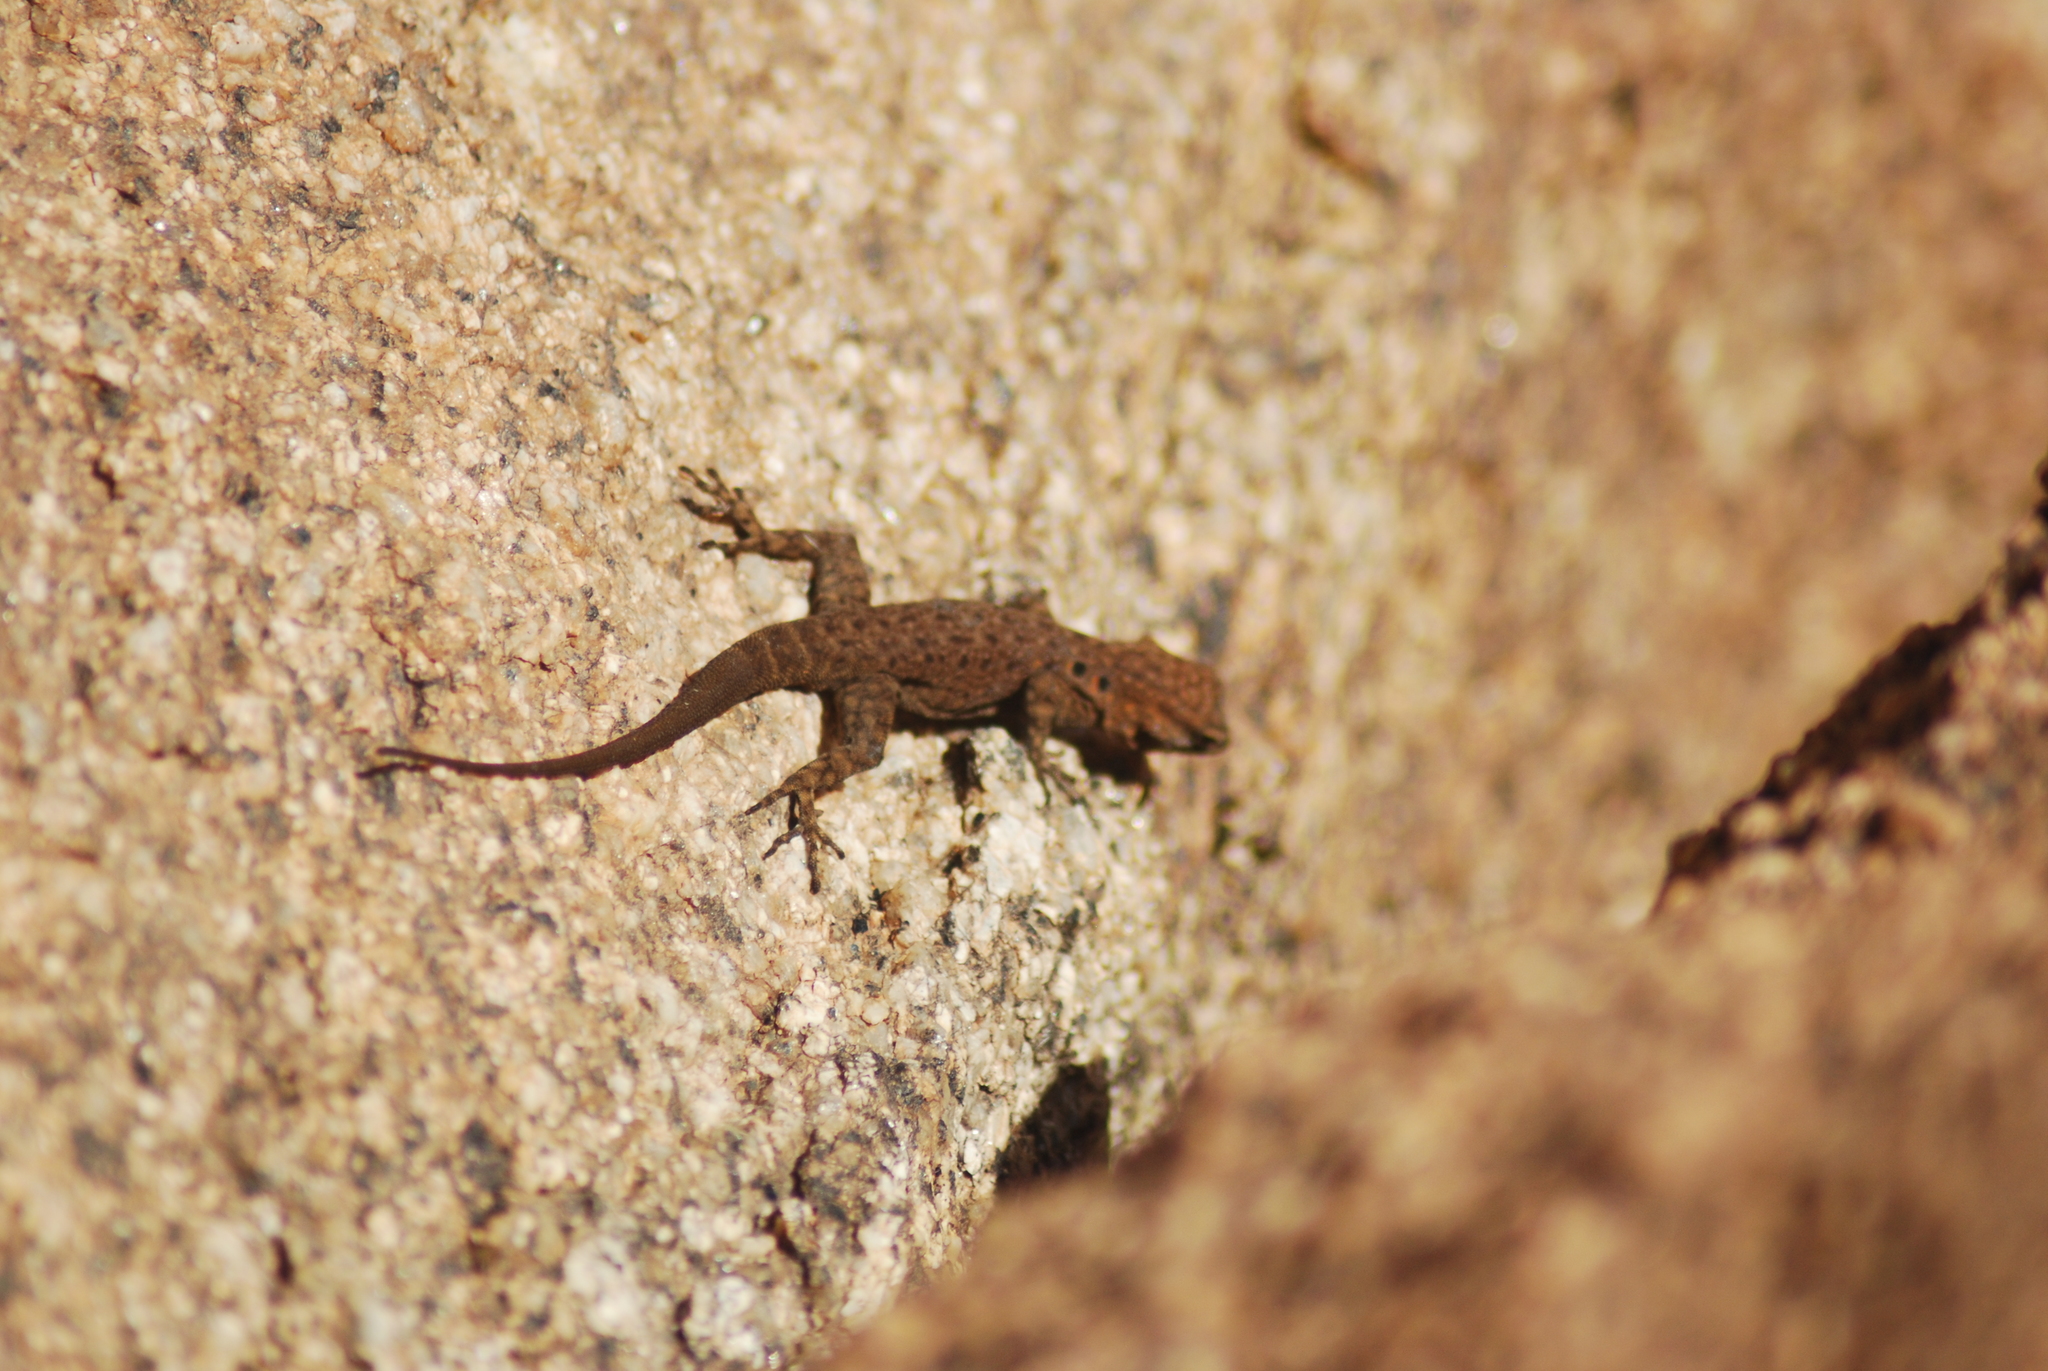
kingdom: Animalia
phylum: Chordata
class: Squamata
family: Sphaerodactylidae
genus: Quedenfeldtia
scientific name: Quedenfeldtia moerens
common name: Atlas day gecko
